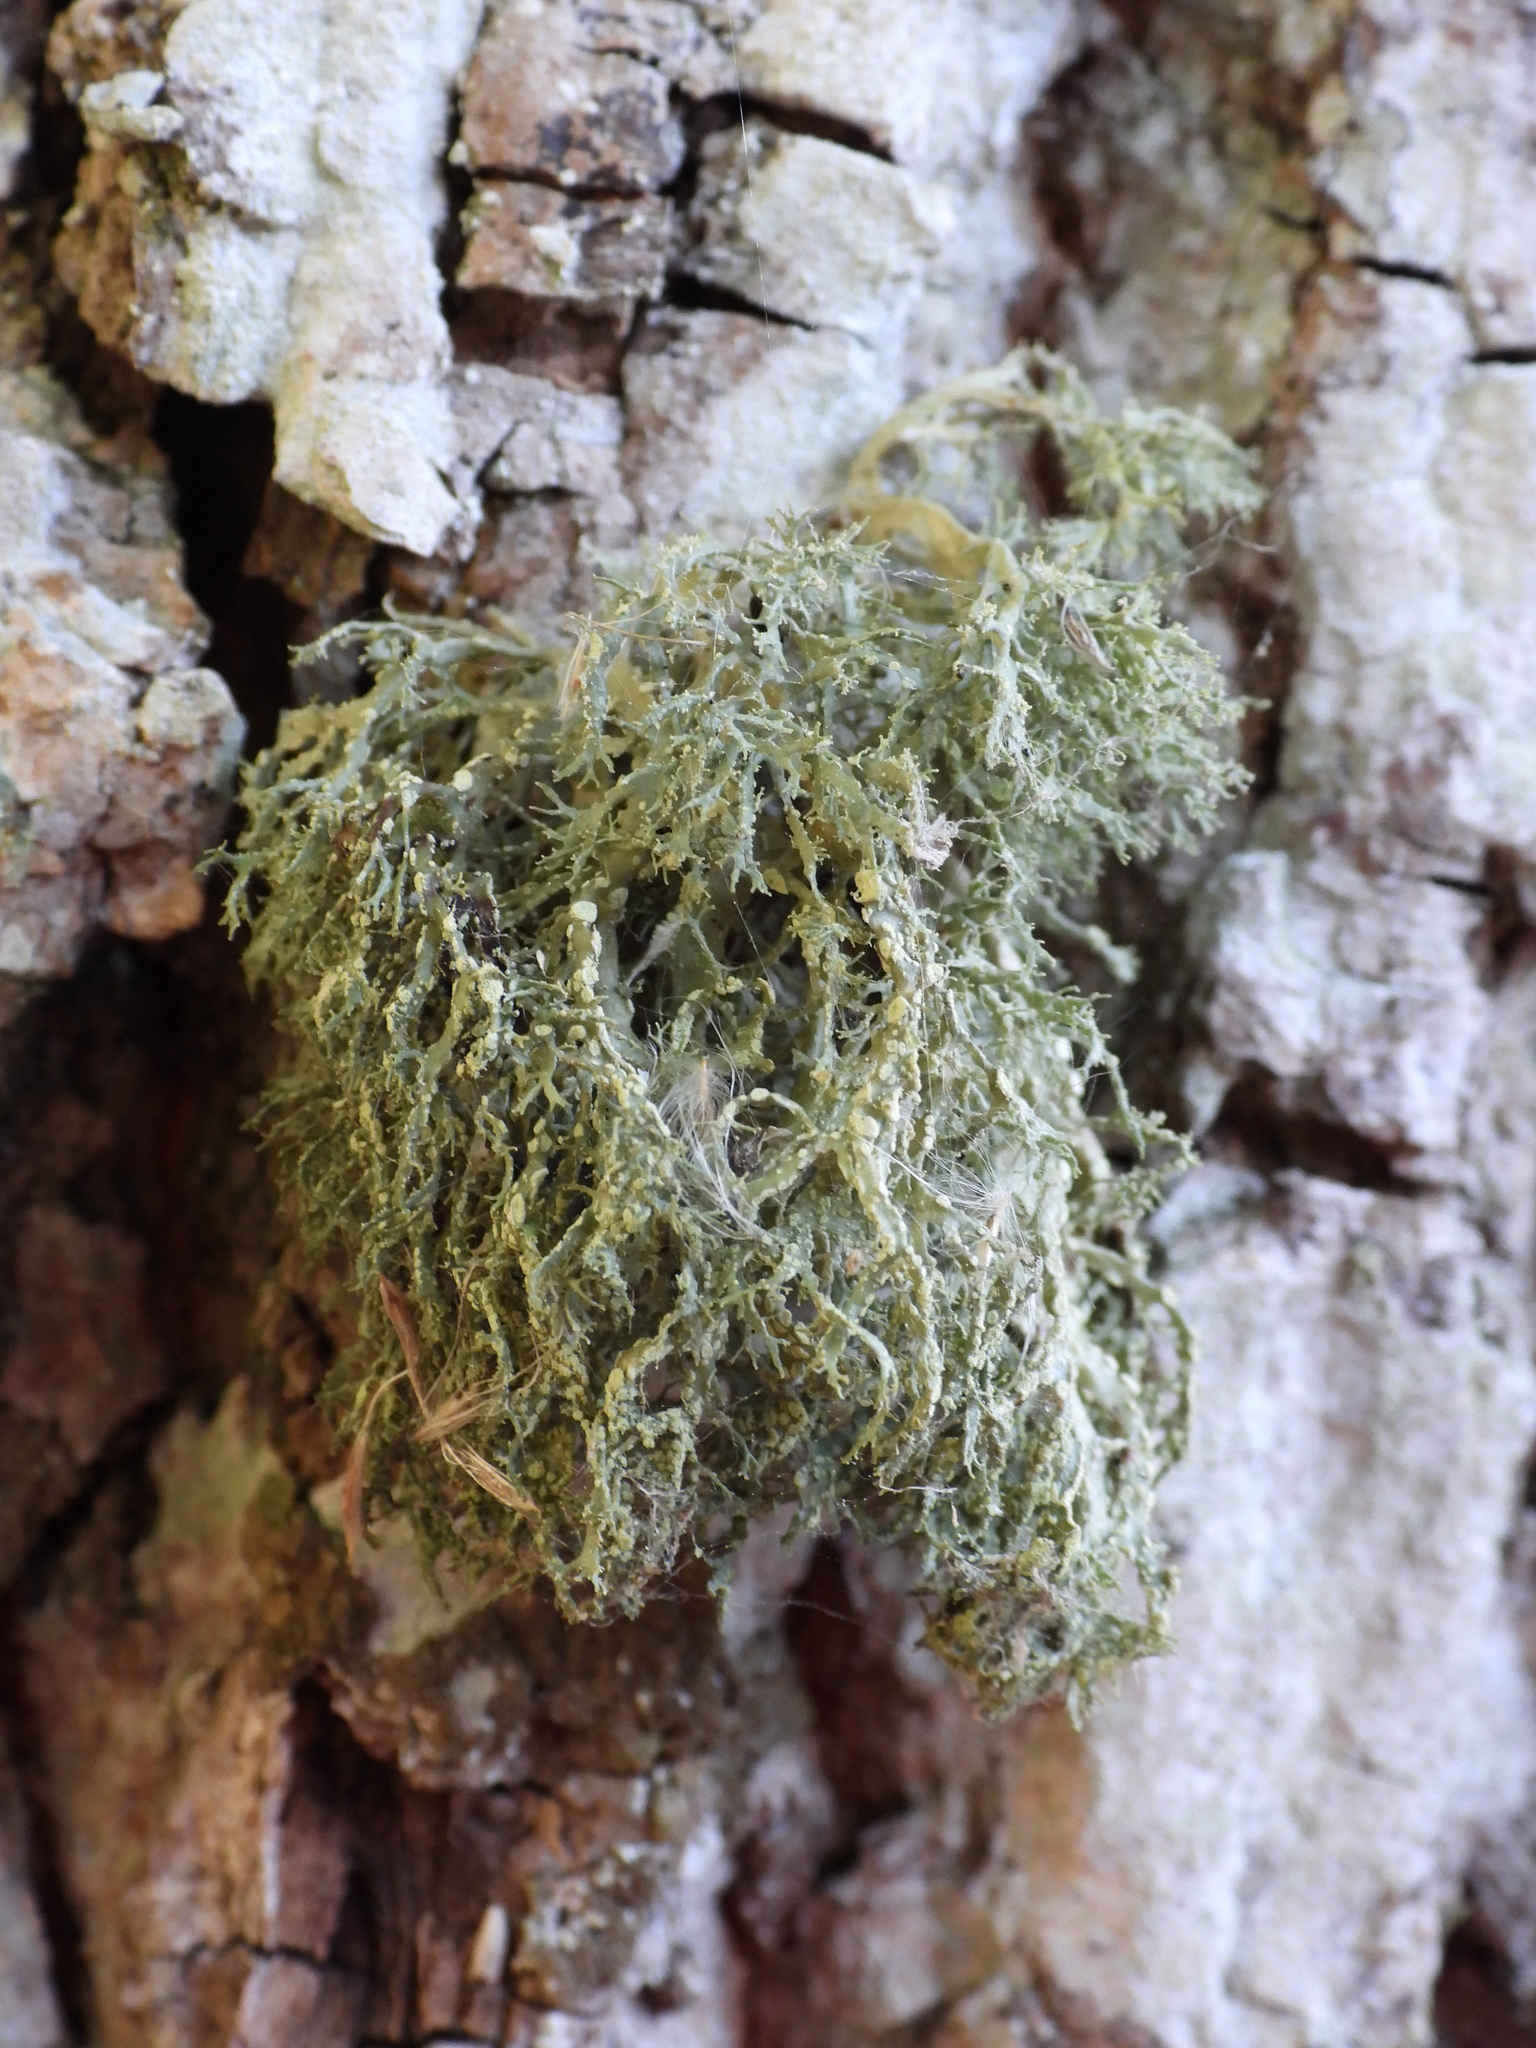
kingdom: Fungi
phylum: Ascomycota
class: Lecanoromycetes
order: Lecanorales
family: Ramalinaceae
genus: Ramalina
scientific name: Ramalina farinacea
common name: Farinose cartilage lichen
